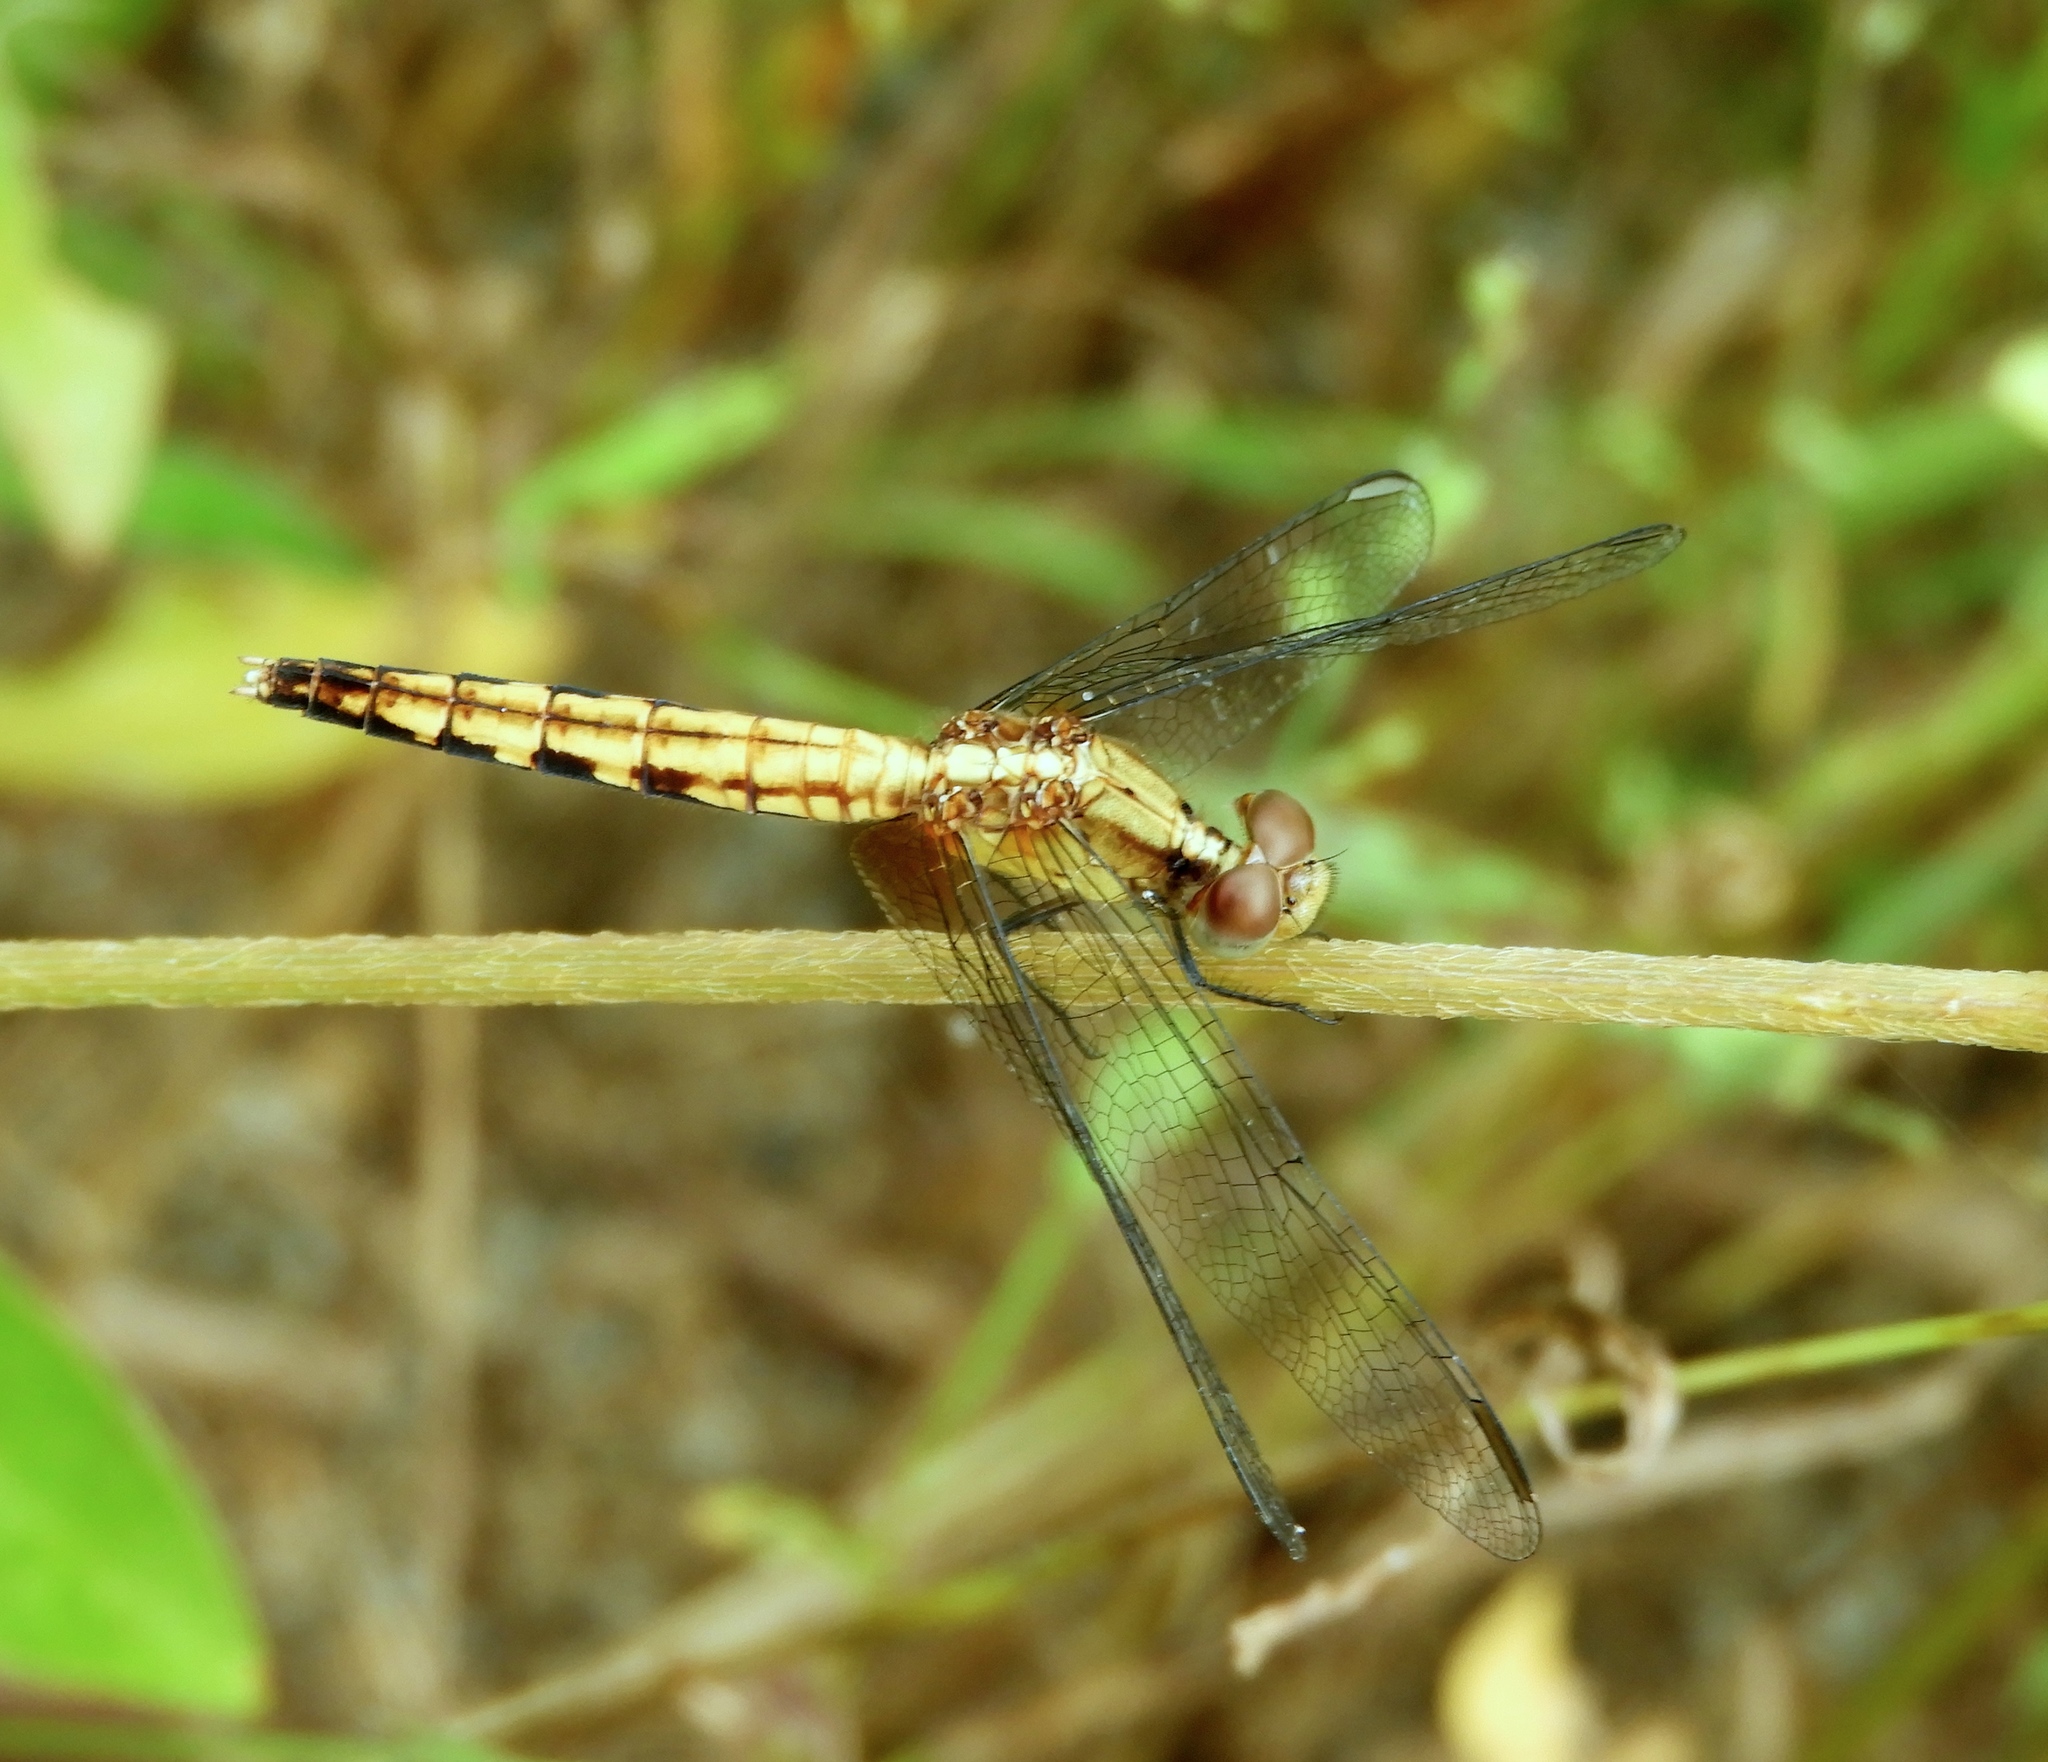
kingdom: Animalia
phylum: Arthropoda
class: Insecta
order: Odonata
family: Libellulidae
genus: Erythrodiplax
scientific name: Erythrodiplax fusca
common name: Red-faced dragonlet
